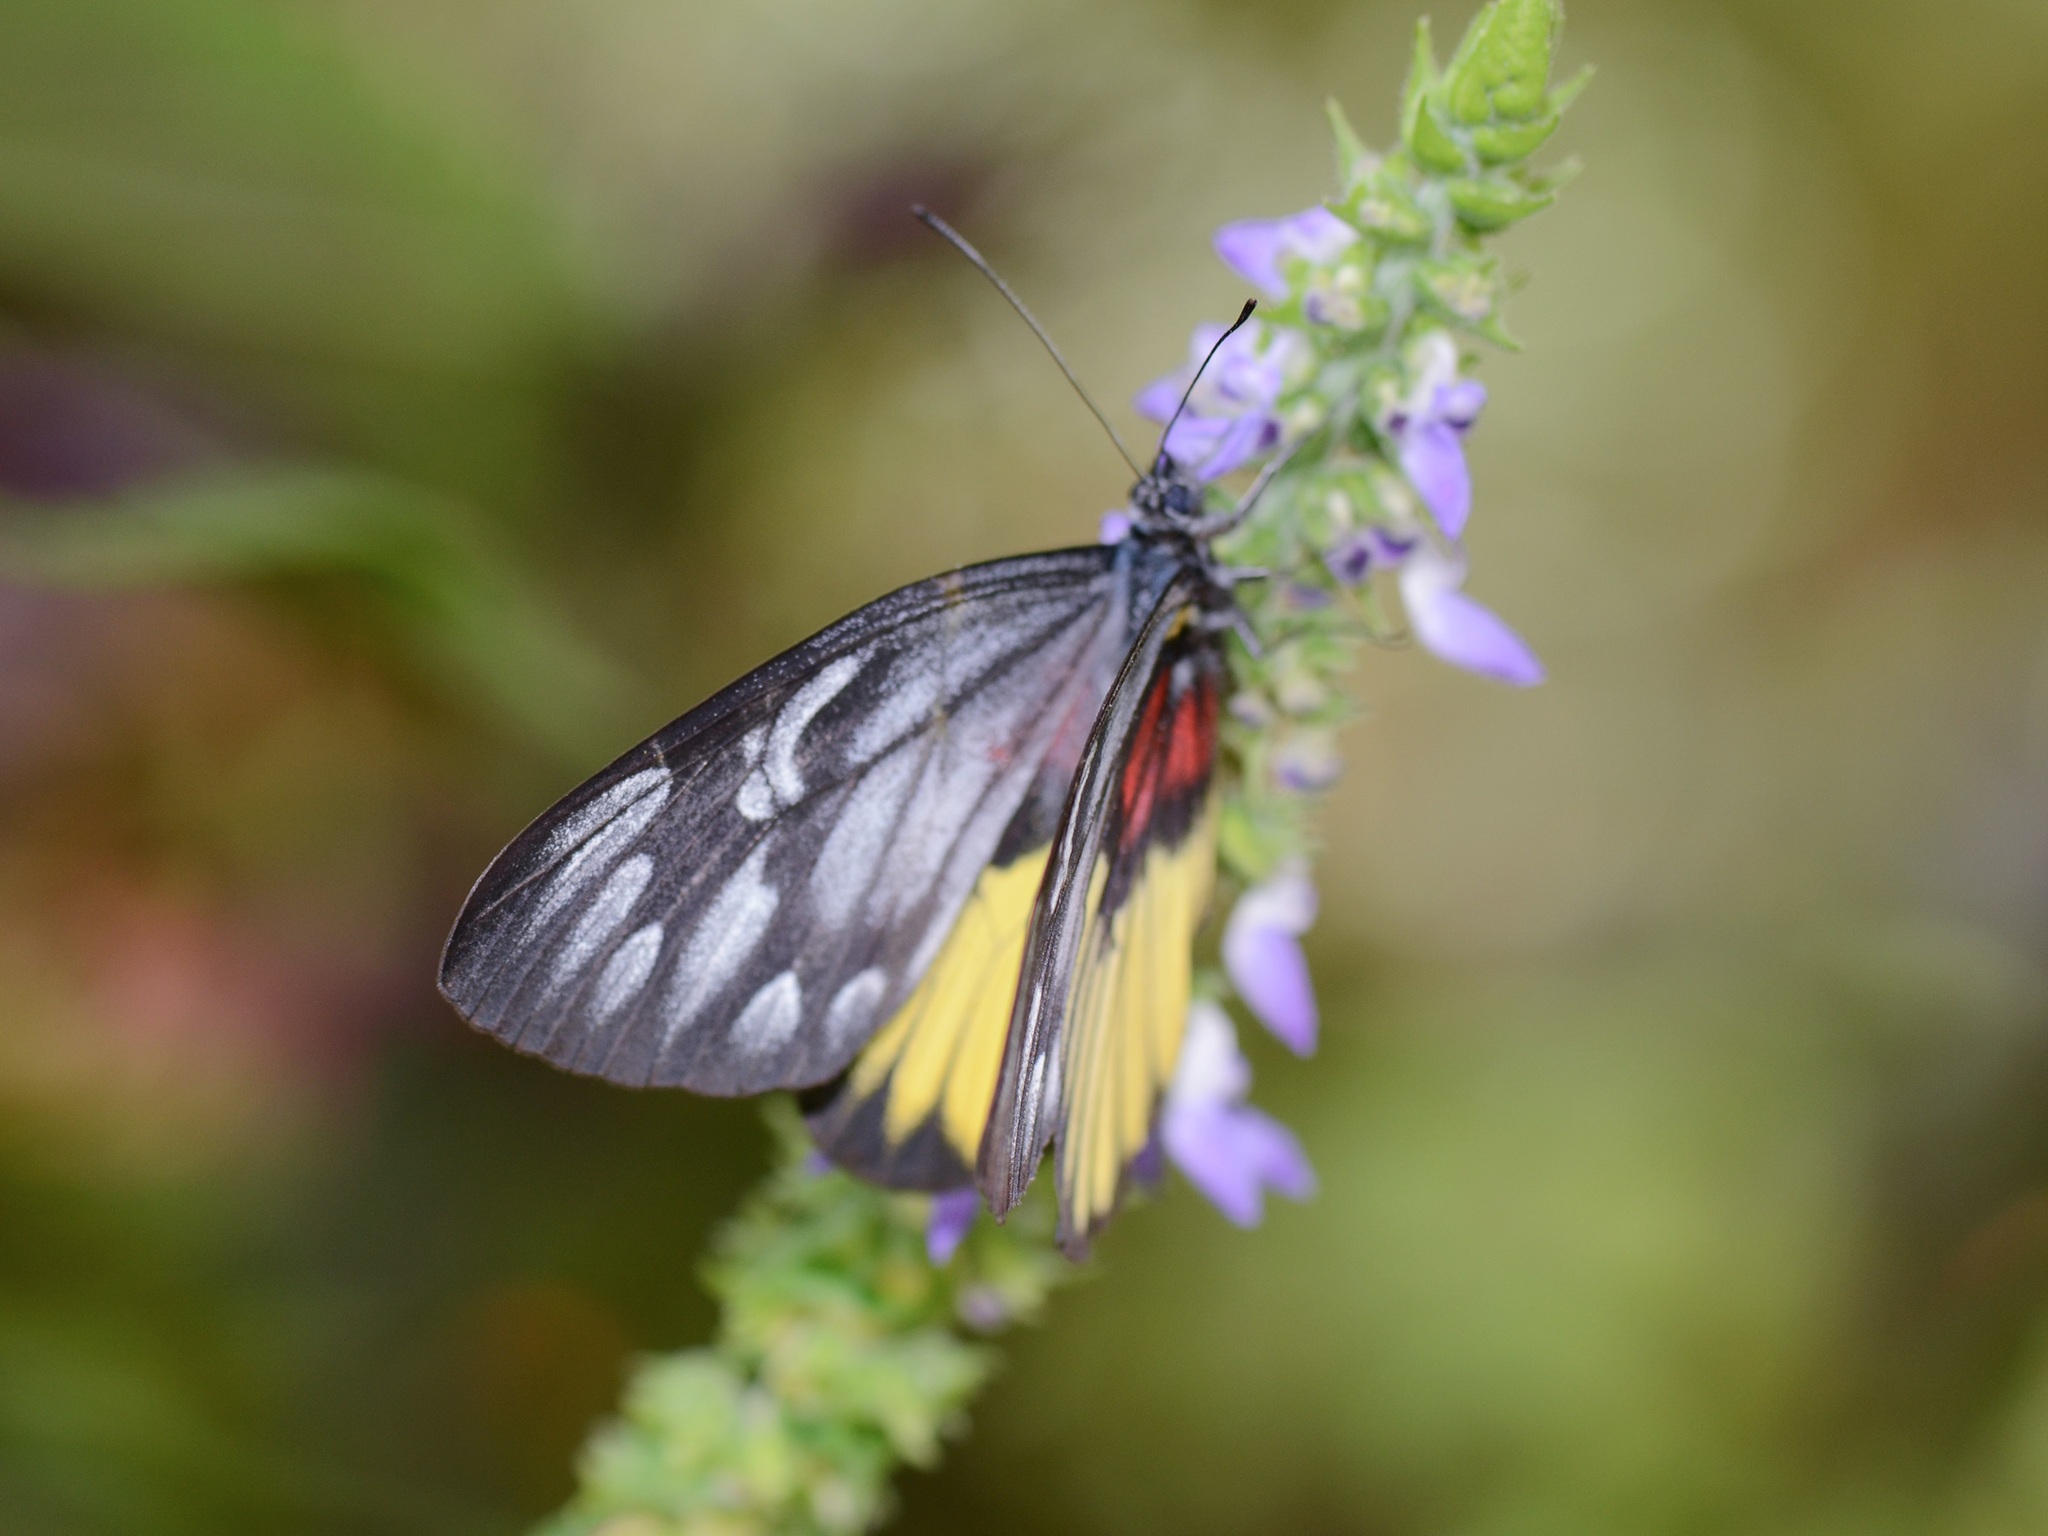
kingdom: Animalia
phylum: Arthropoda
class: Insecta
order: Lepidoptera
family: Pieridae
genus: Delias
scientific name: Delias ninus
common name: Malayan jezebel
